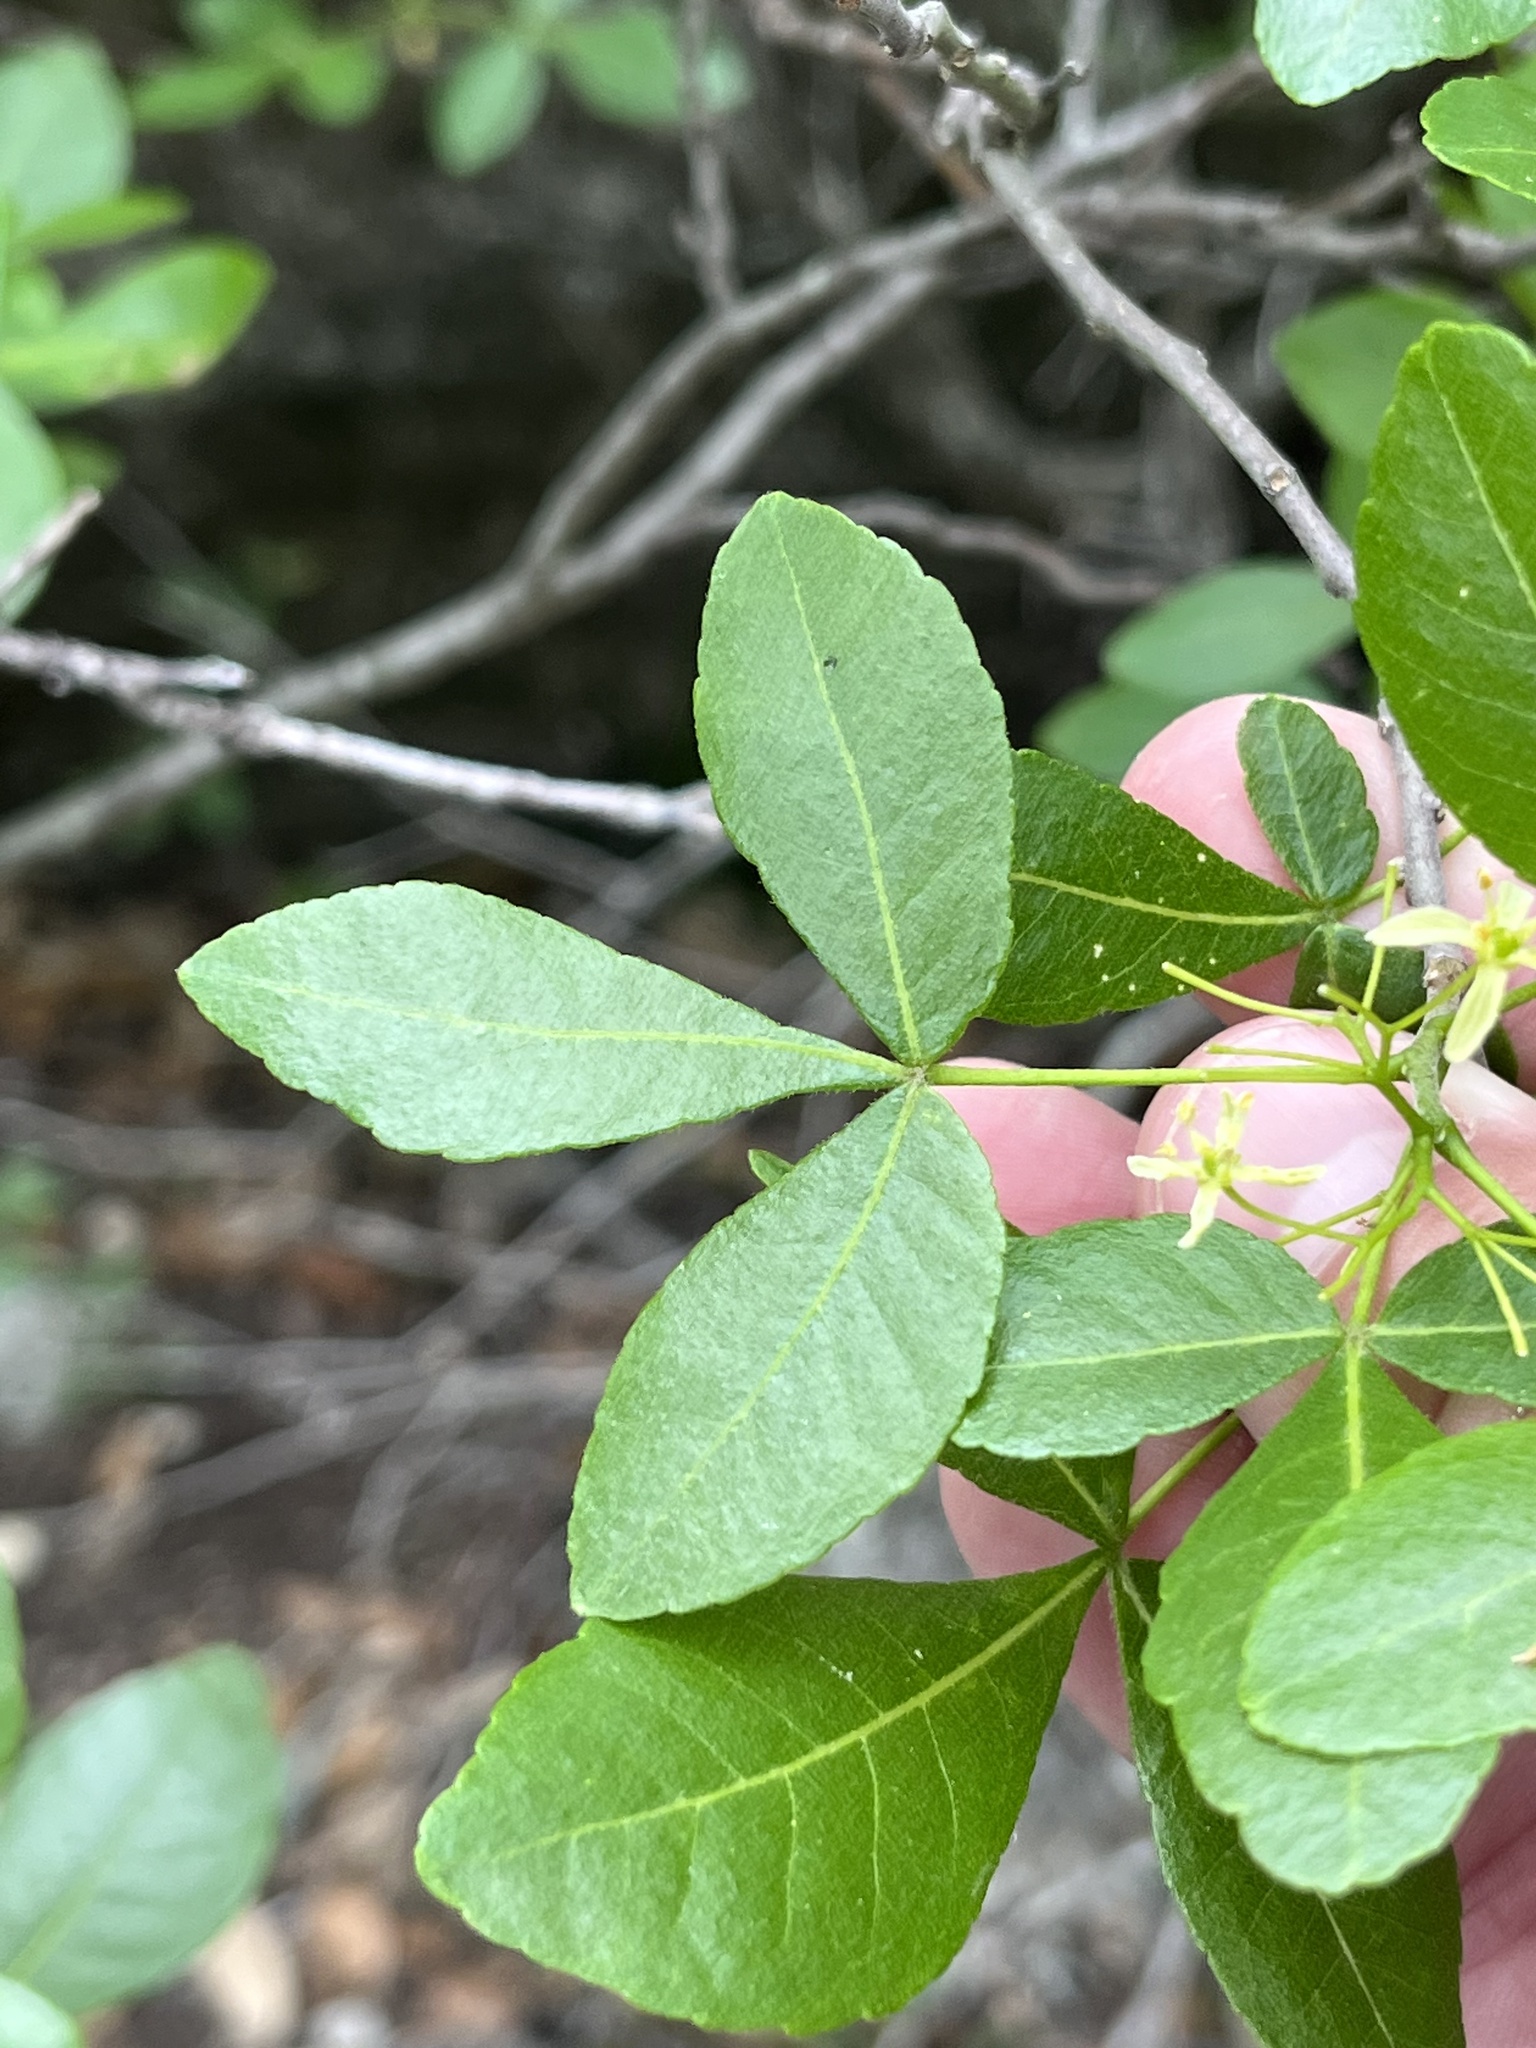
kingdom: Plantae
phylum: Tracheophyta
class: Magnoliopsida
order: Sapindales
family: Rutaceae
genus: Ptelea
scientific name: Ptelea trifoliata
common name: Common hop-tree
